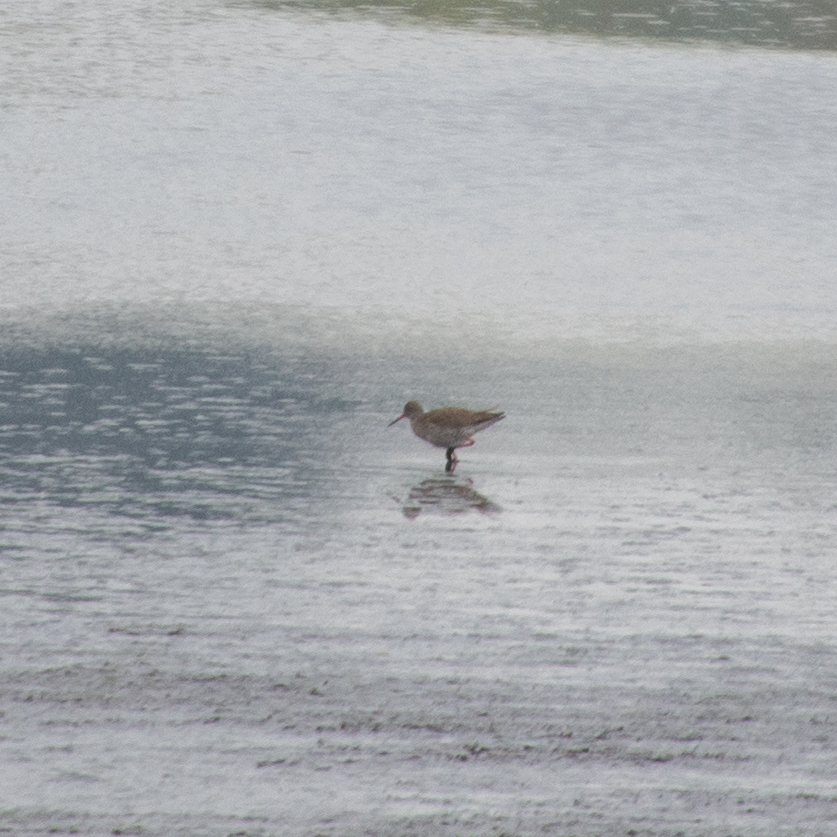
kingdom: Animalia
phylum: Chordata
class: Aves
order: Charadriiformes
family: Scolopacidae
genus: Tringa
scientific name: Tringa totanus
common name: Common redshank
